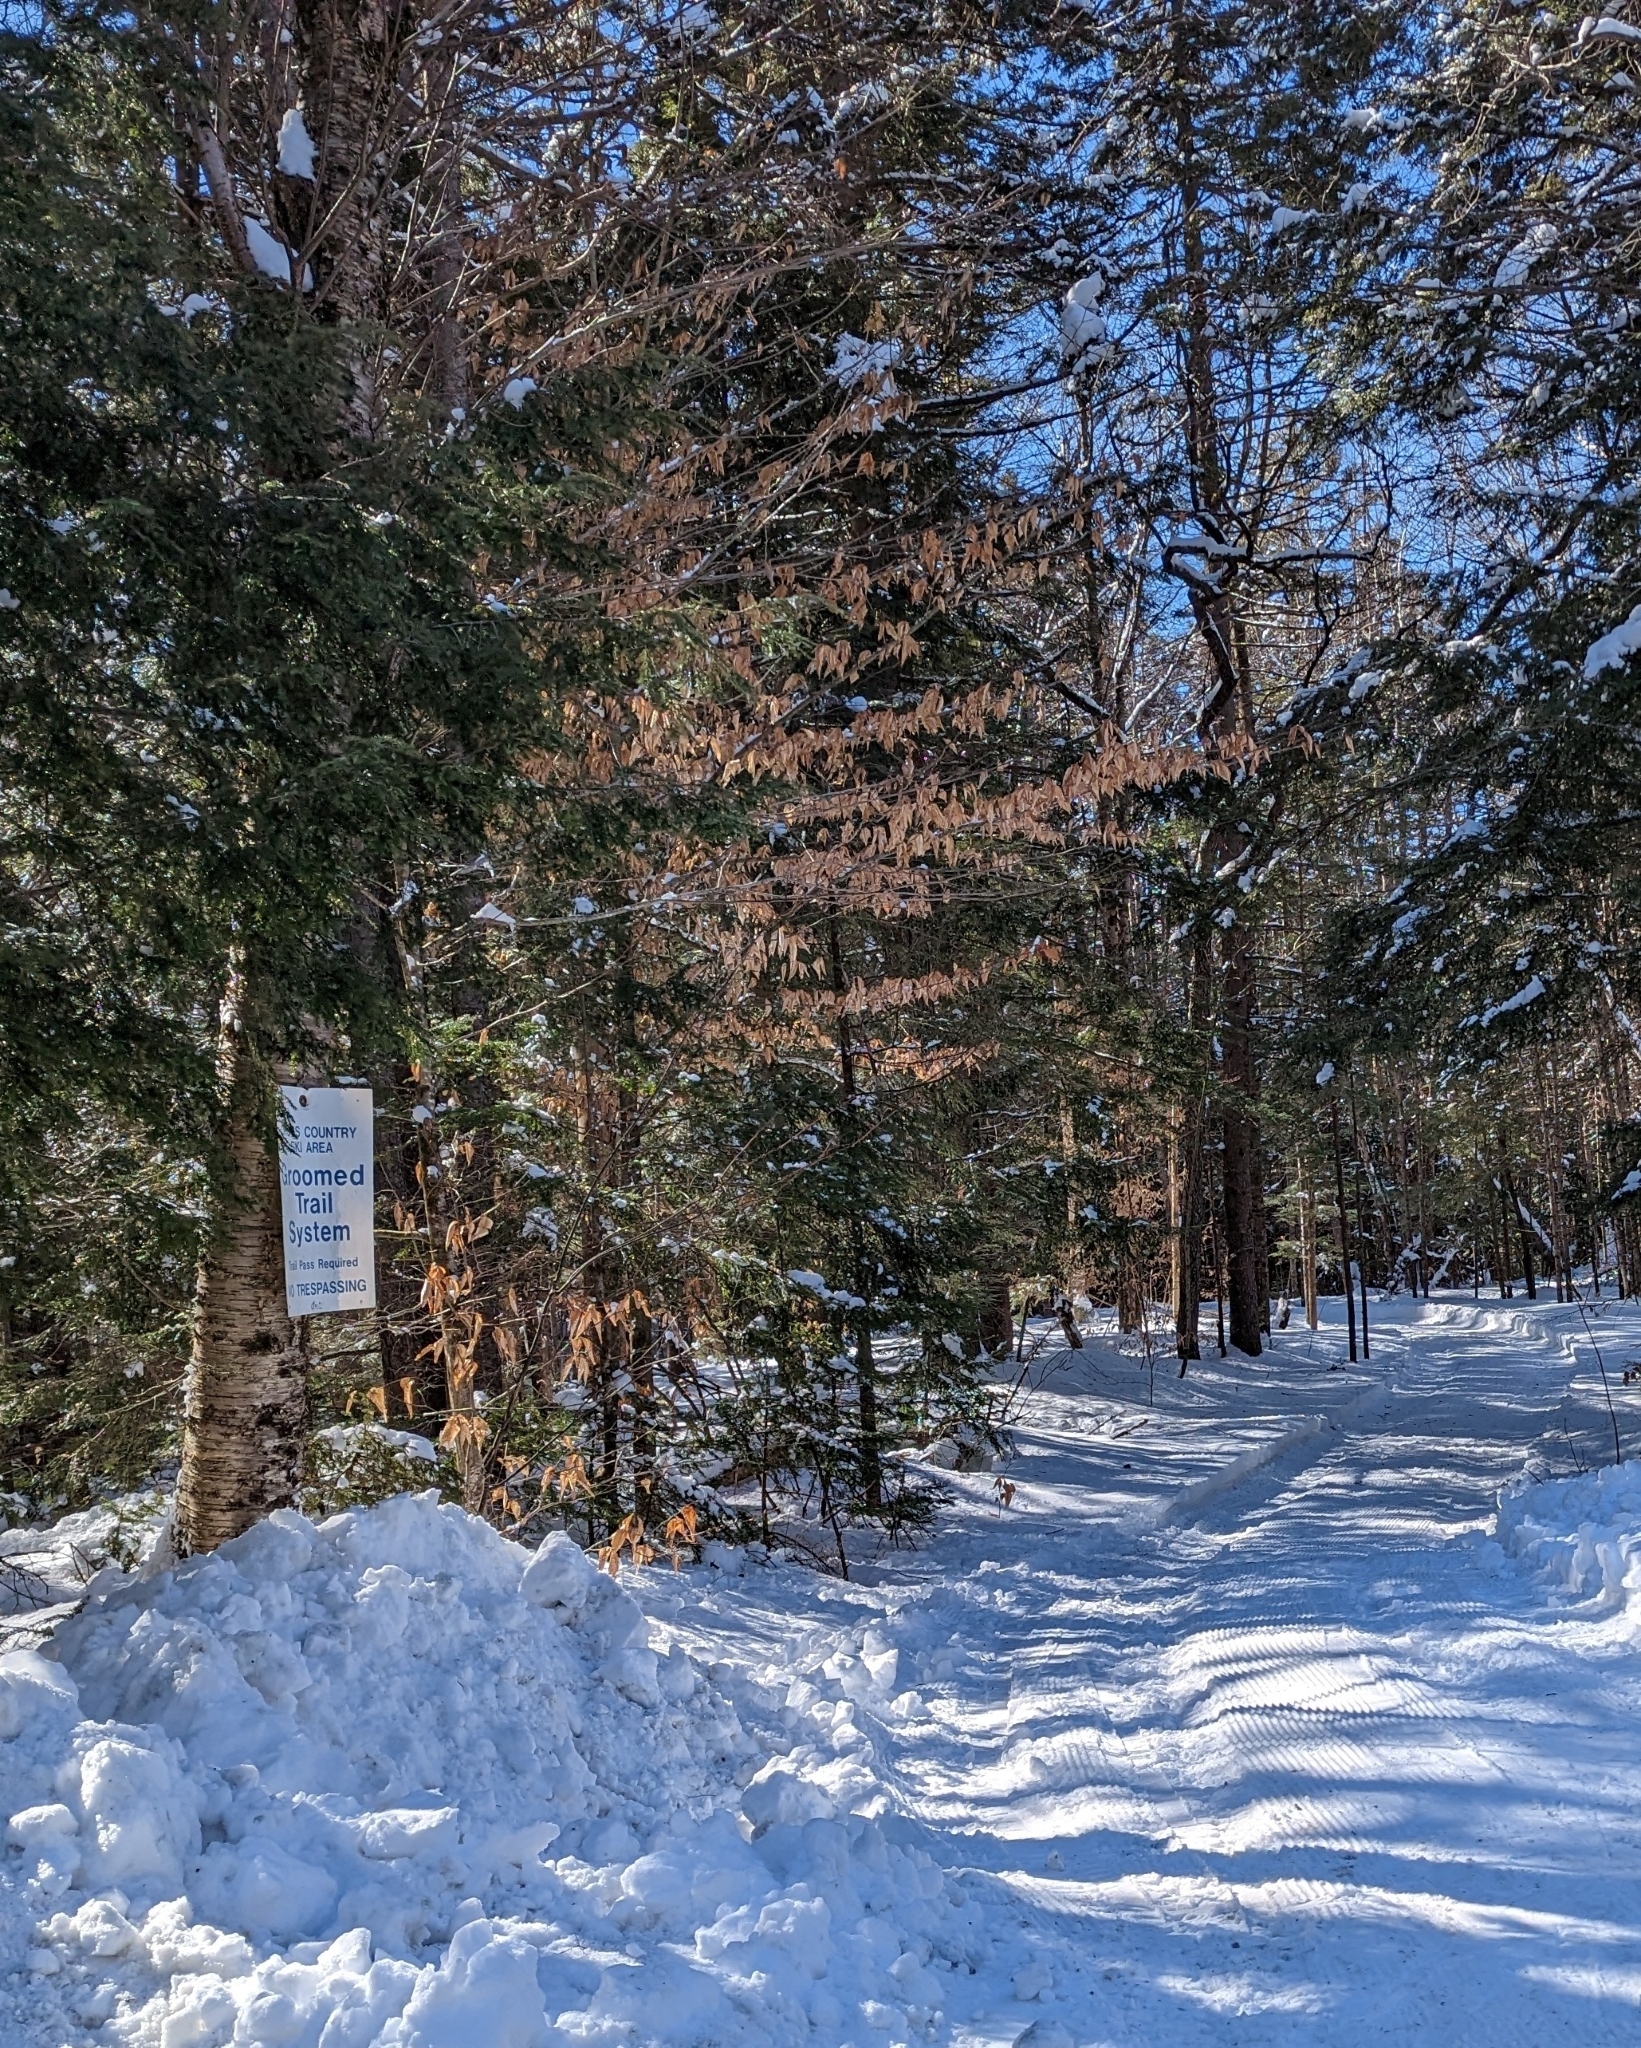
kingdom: Plantae
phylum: Tracheophyta
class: Magnoliopsida
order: Fagales
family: Fagaceae
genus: Fagus
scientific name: Fagus grandifolia
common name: American beech
